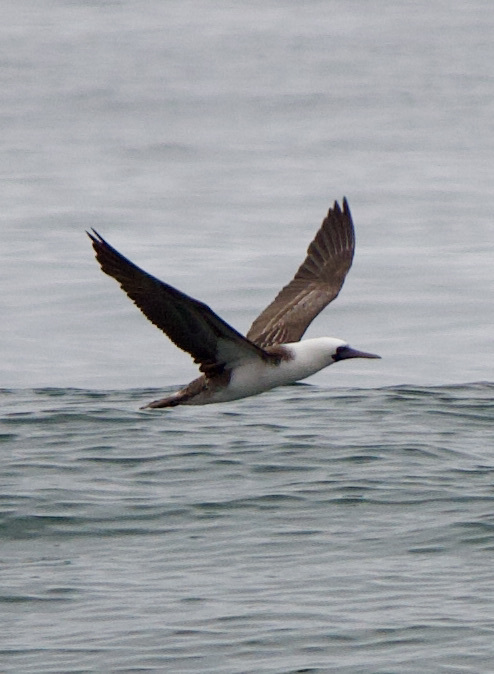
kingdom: Animalia
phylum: Chordata
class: Aves
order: Suliformes
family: Sulidae
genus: Sula
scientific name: Sula variegata
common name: Peruvian booby
